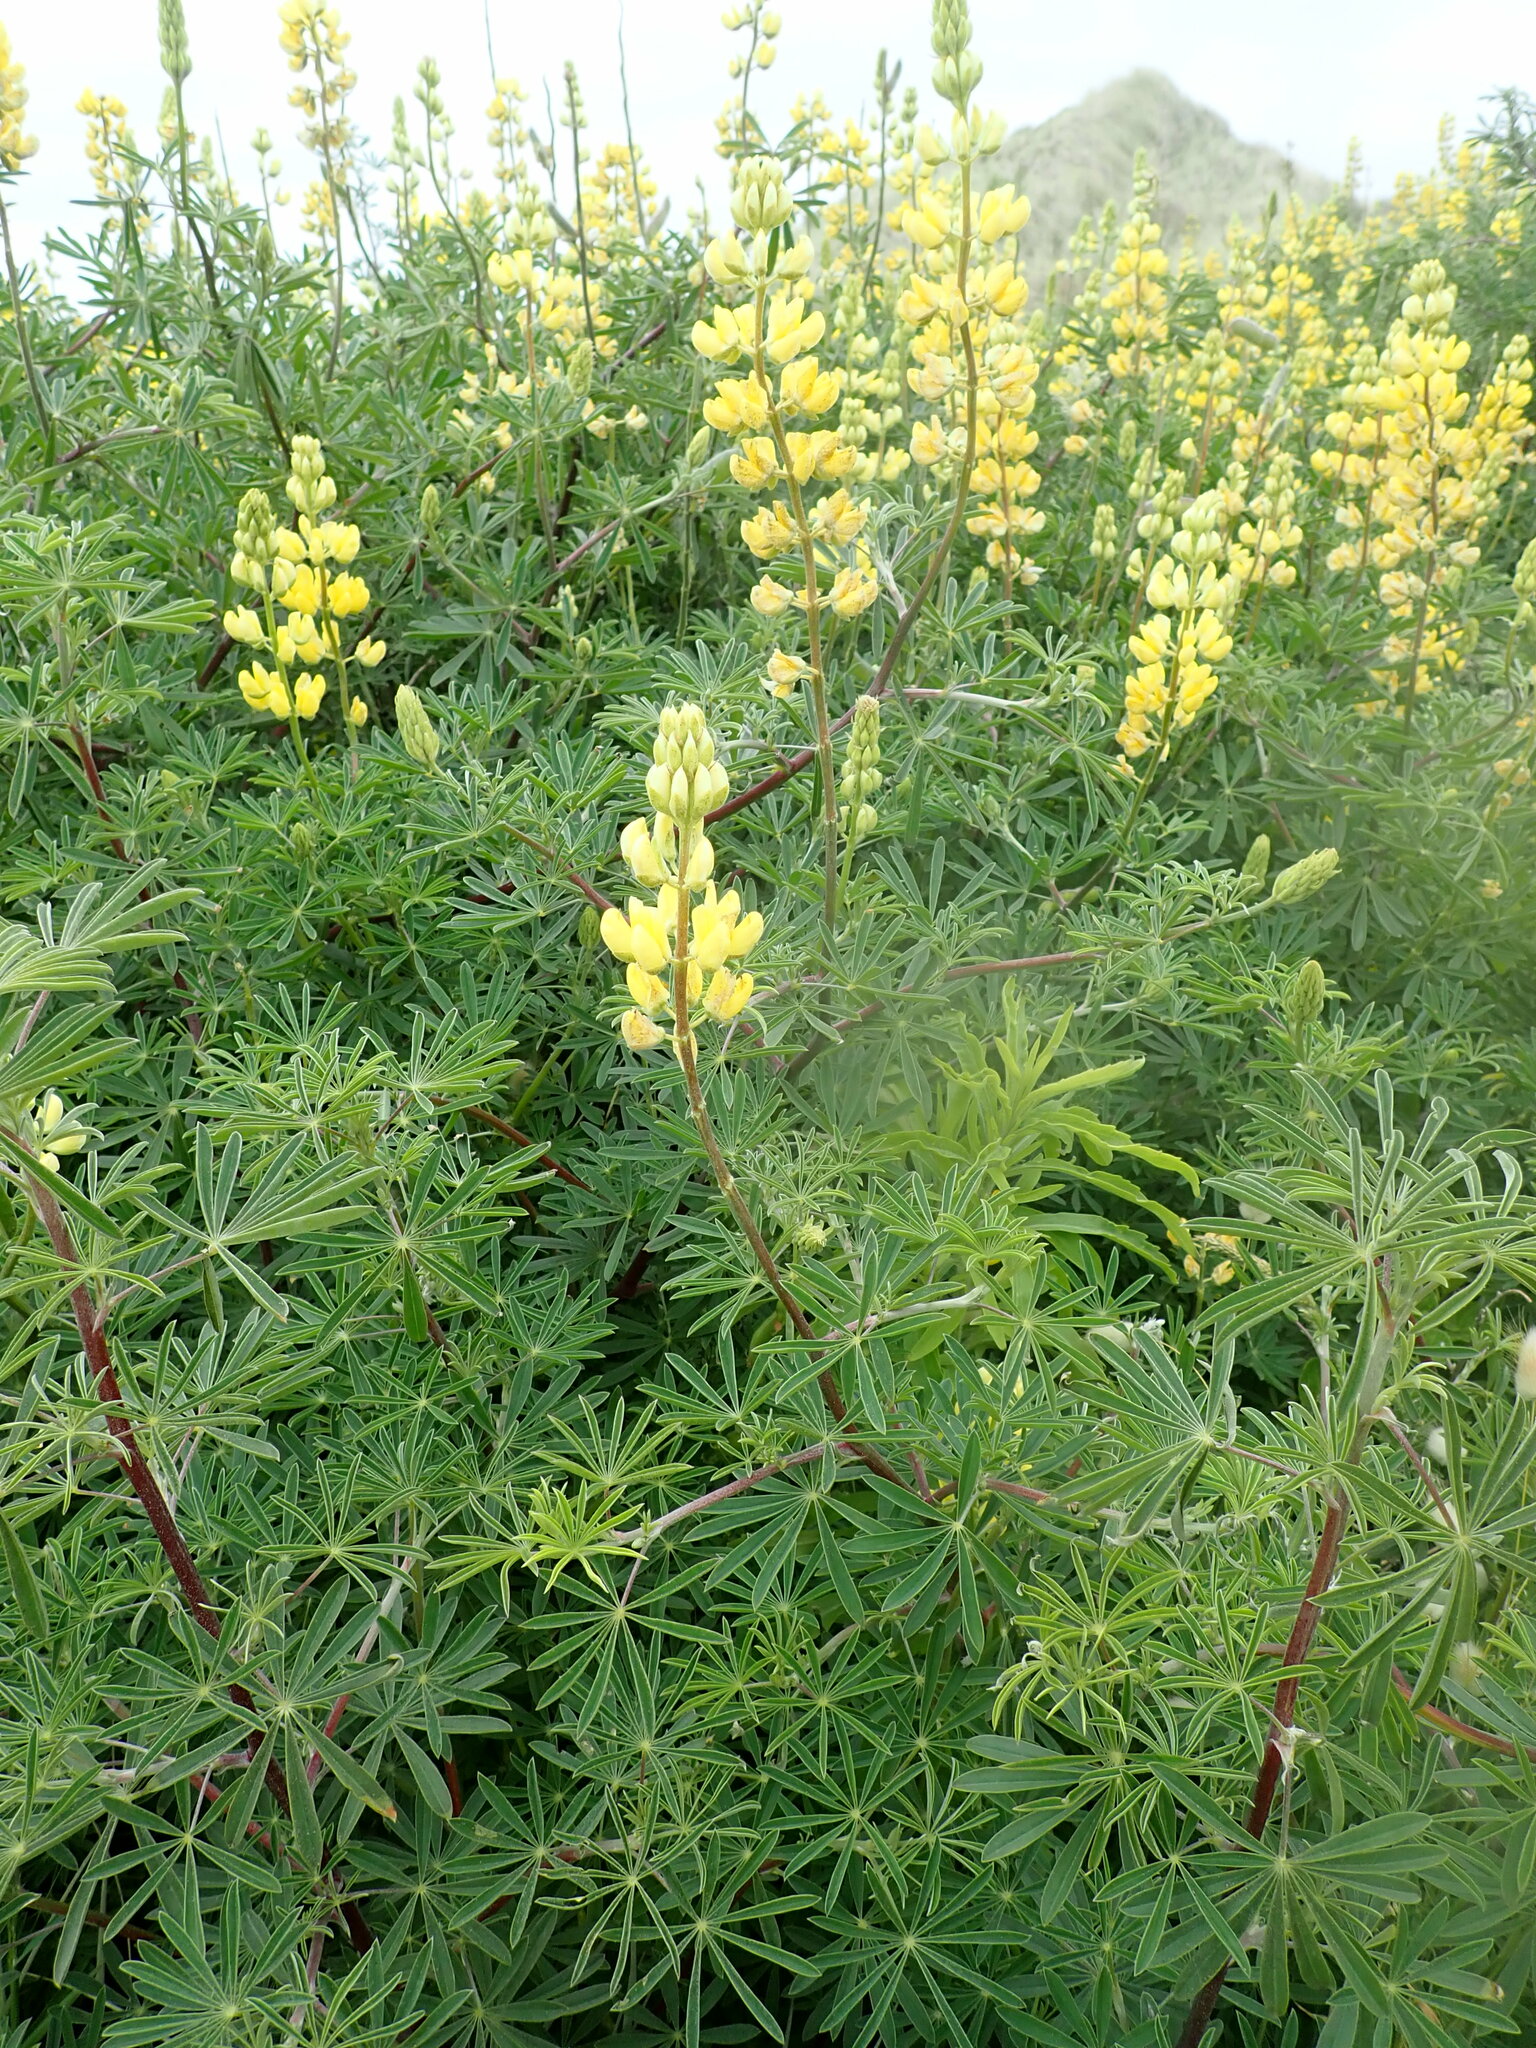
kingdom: Plantae
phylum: Tracheophyta
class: Magnoliopsida
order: Fabales
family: Fabaceae
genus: Lupinus
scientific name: Lupinus arboreus
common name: Yellow bush lupine
